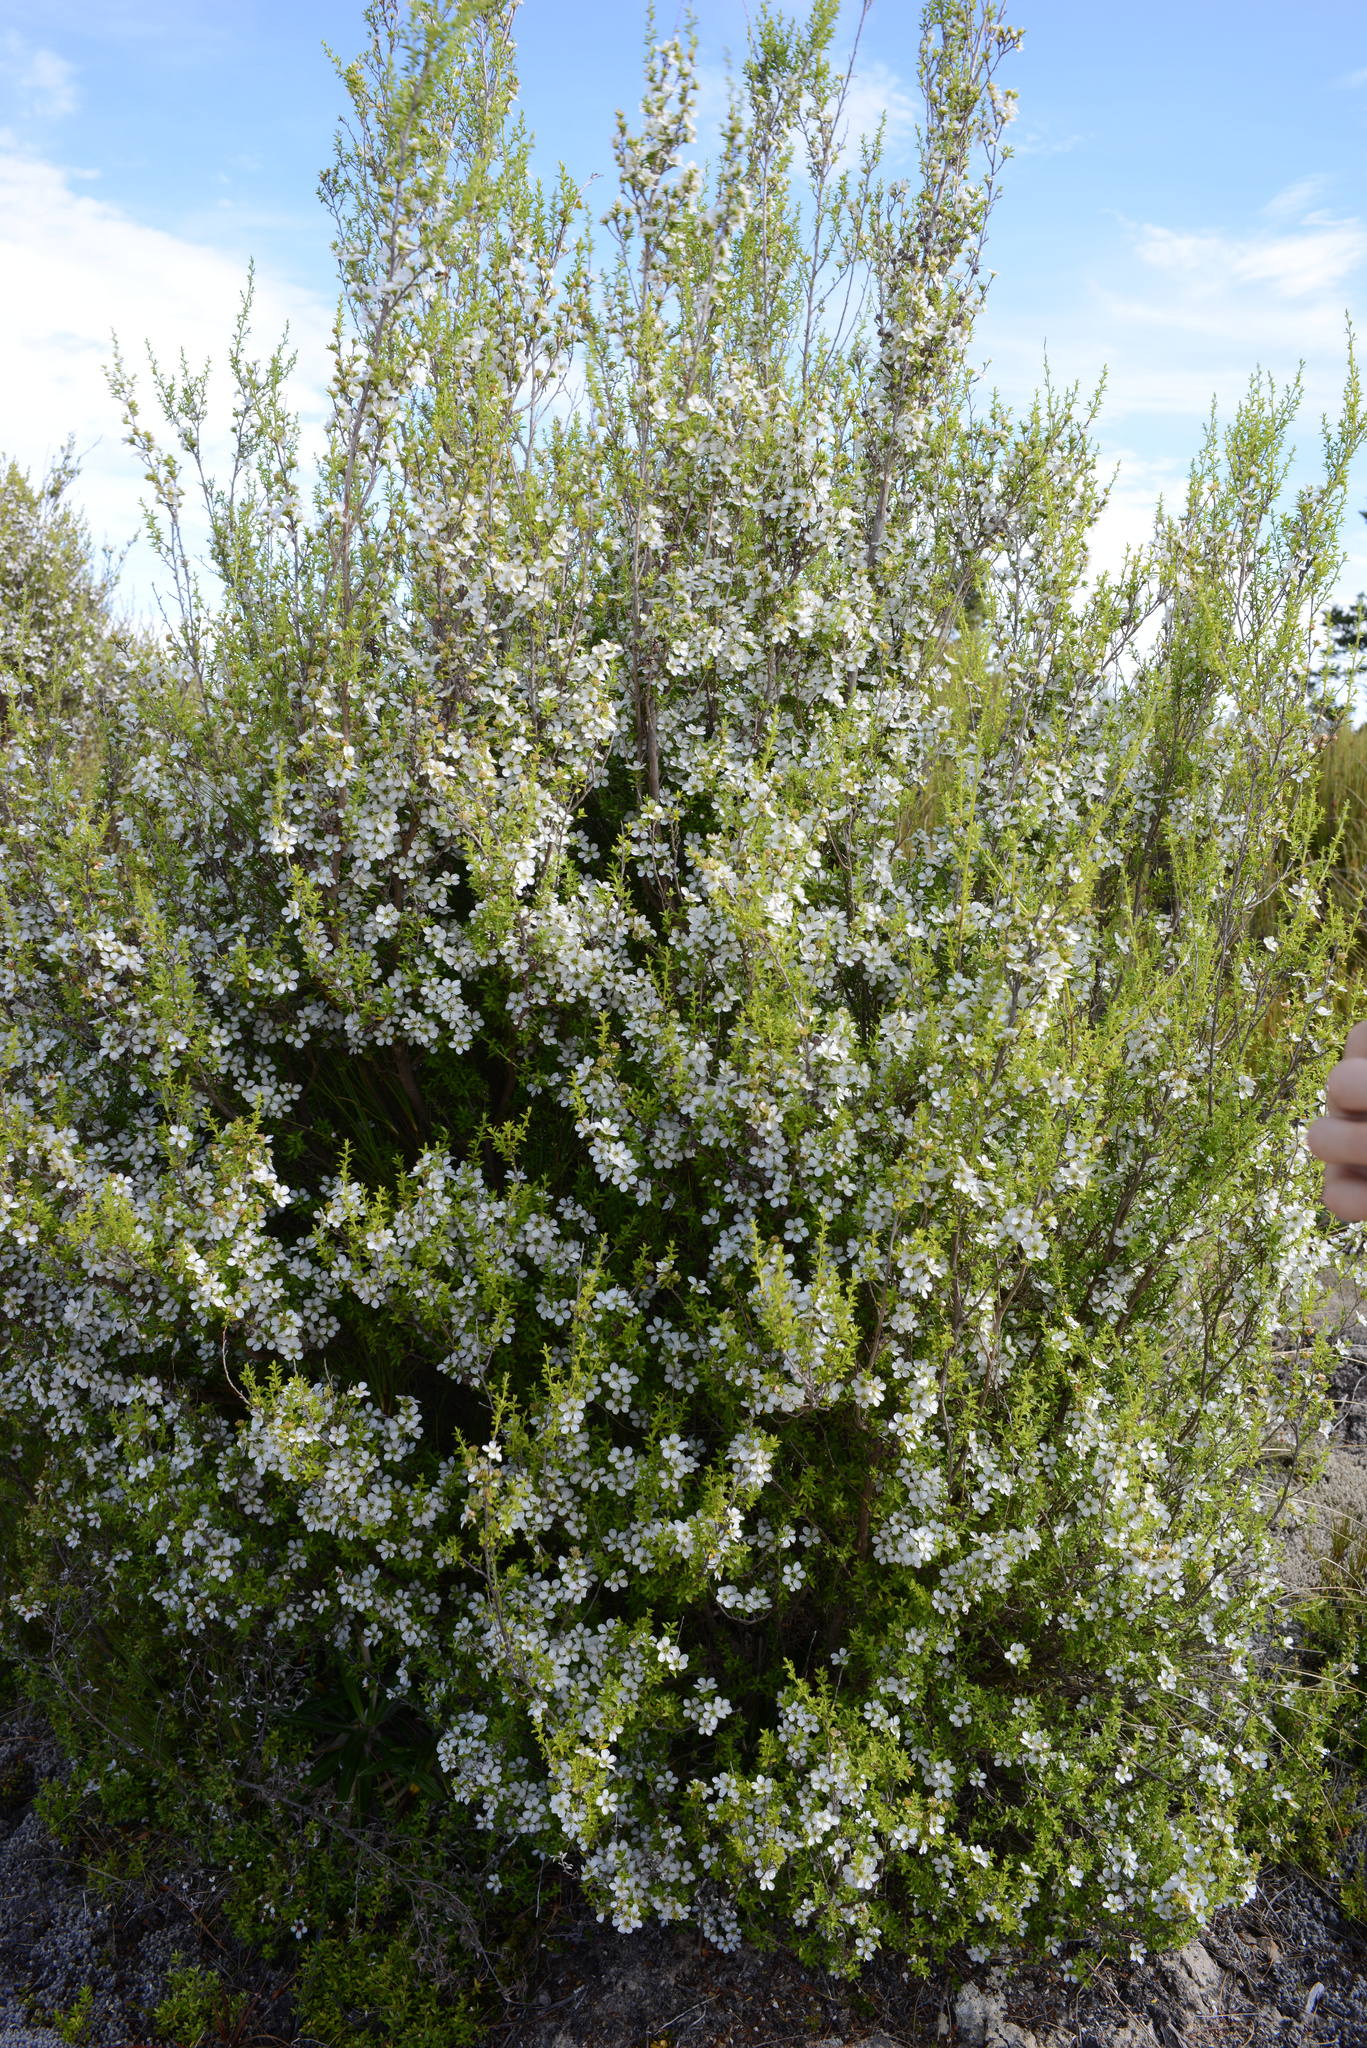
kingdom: Plantae
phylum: Tracheophyta
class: Magnoliopsida
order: Myrtales
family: Myrtaceae
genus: Leptospermum
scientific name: Leptospermum scoparium
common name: Broom tea-tree
